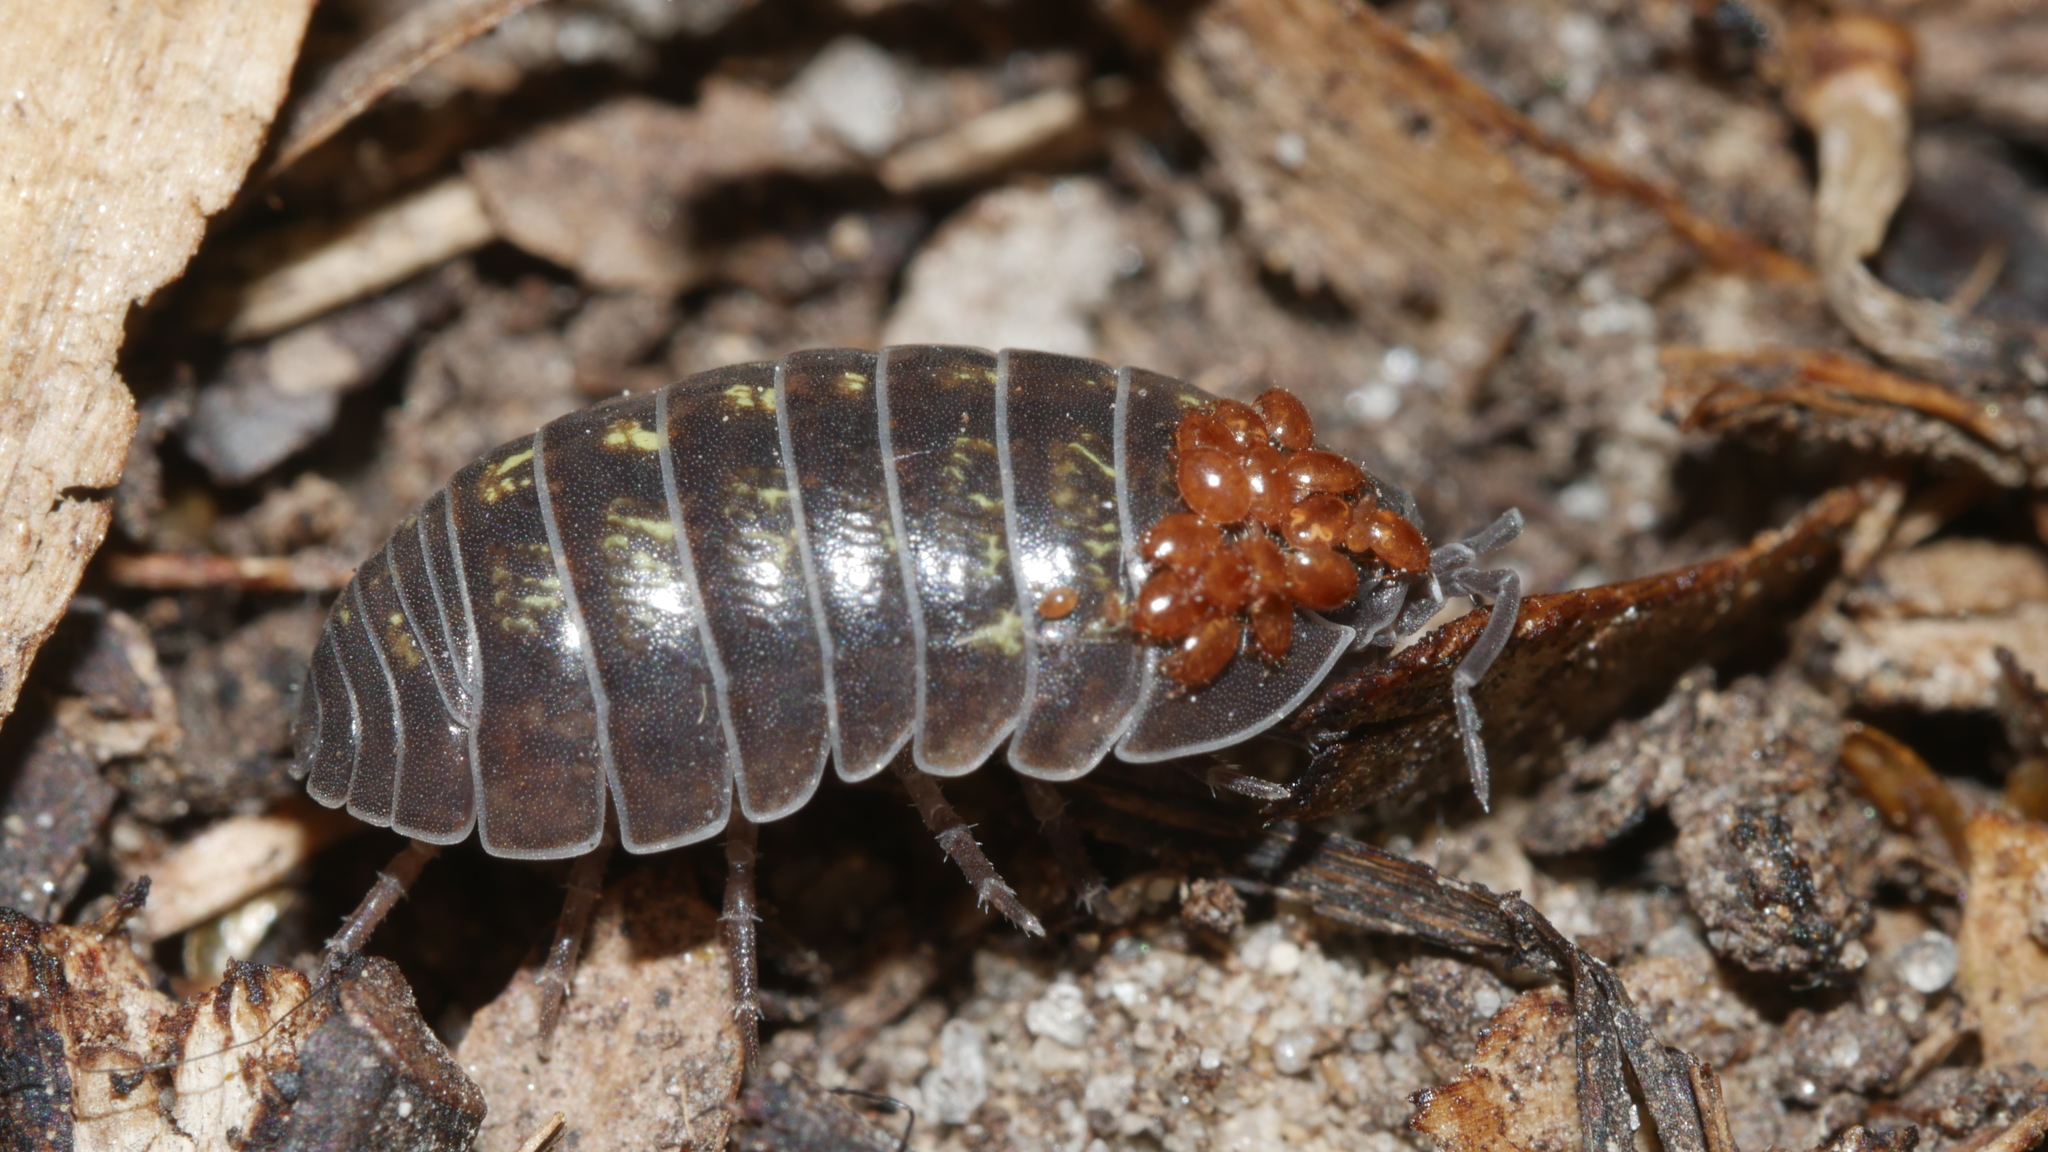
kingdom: Animalia
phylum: Arthropoda
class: Malacostraca
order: Isopoda
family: Armadillidiidae
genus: Armadillidium
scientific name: Armadillidium vulgare
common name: Common pill woodlouse
